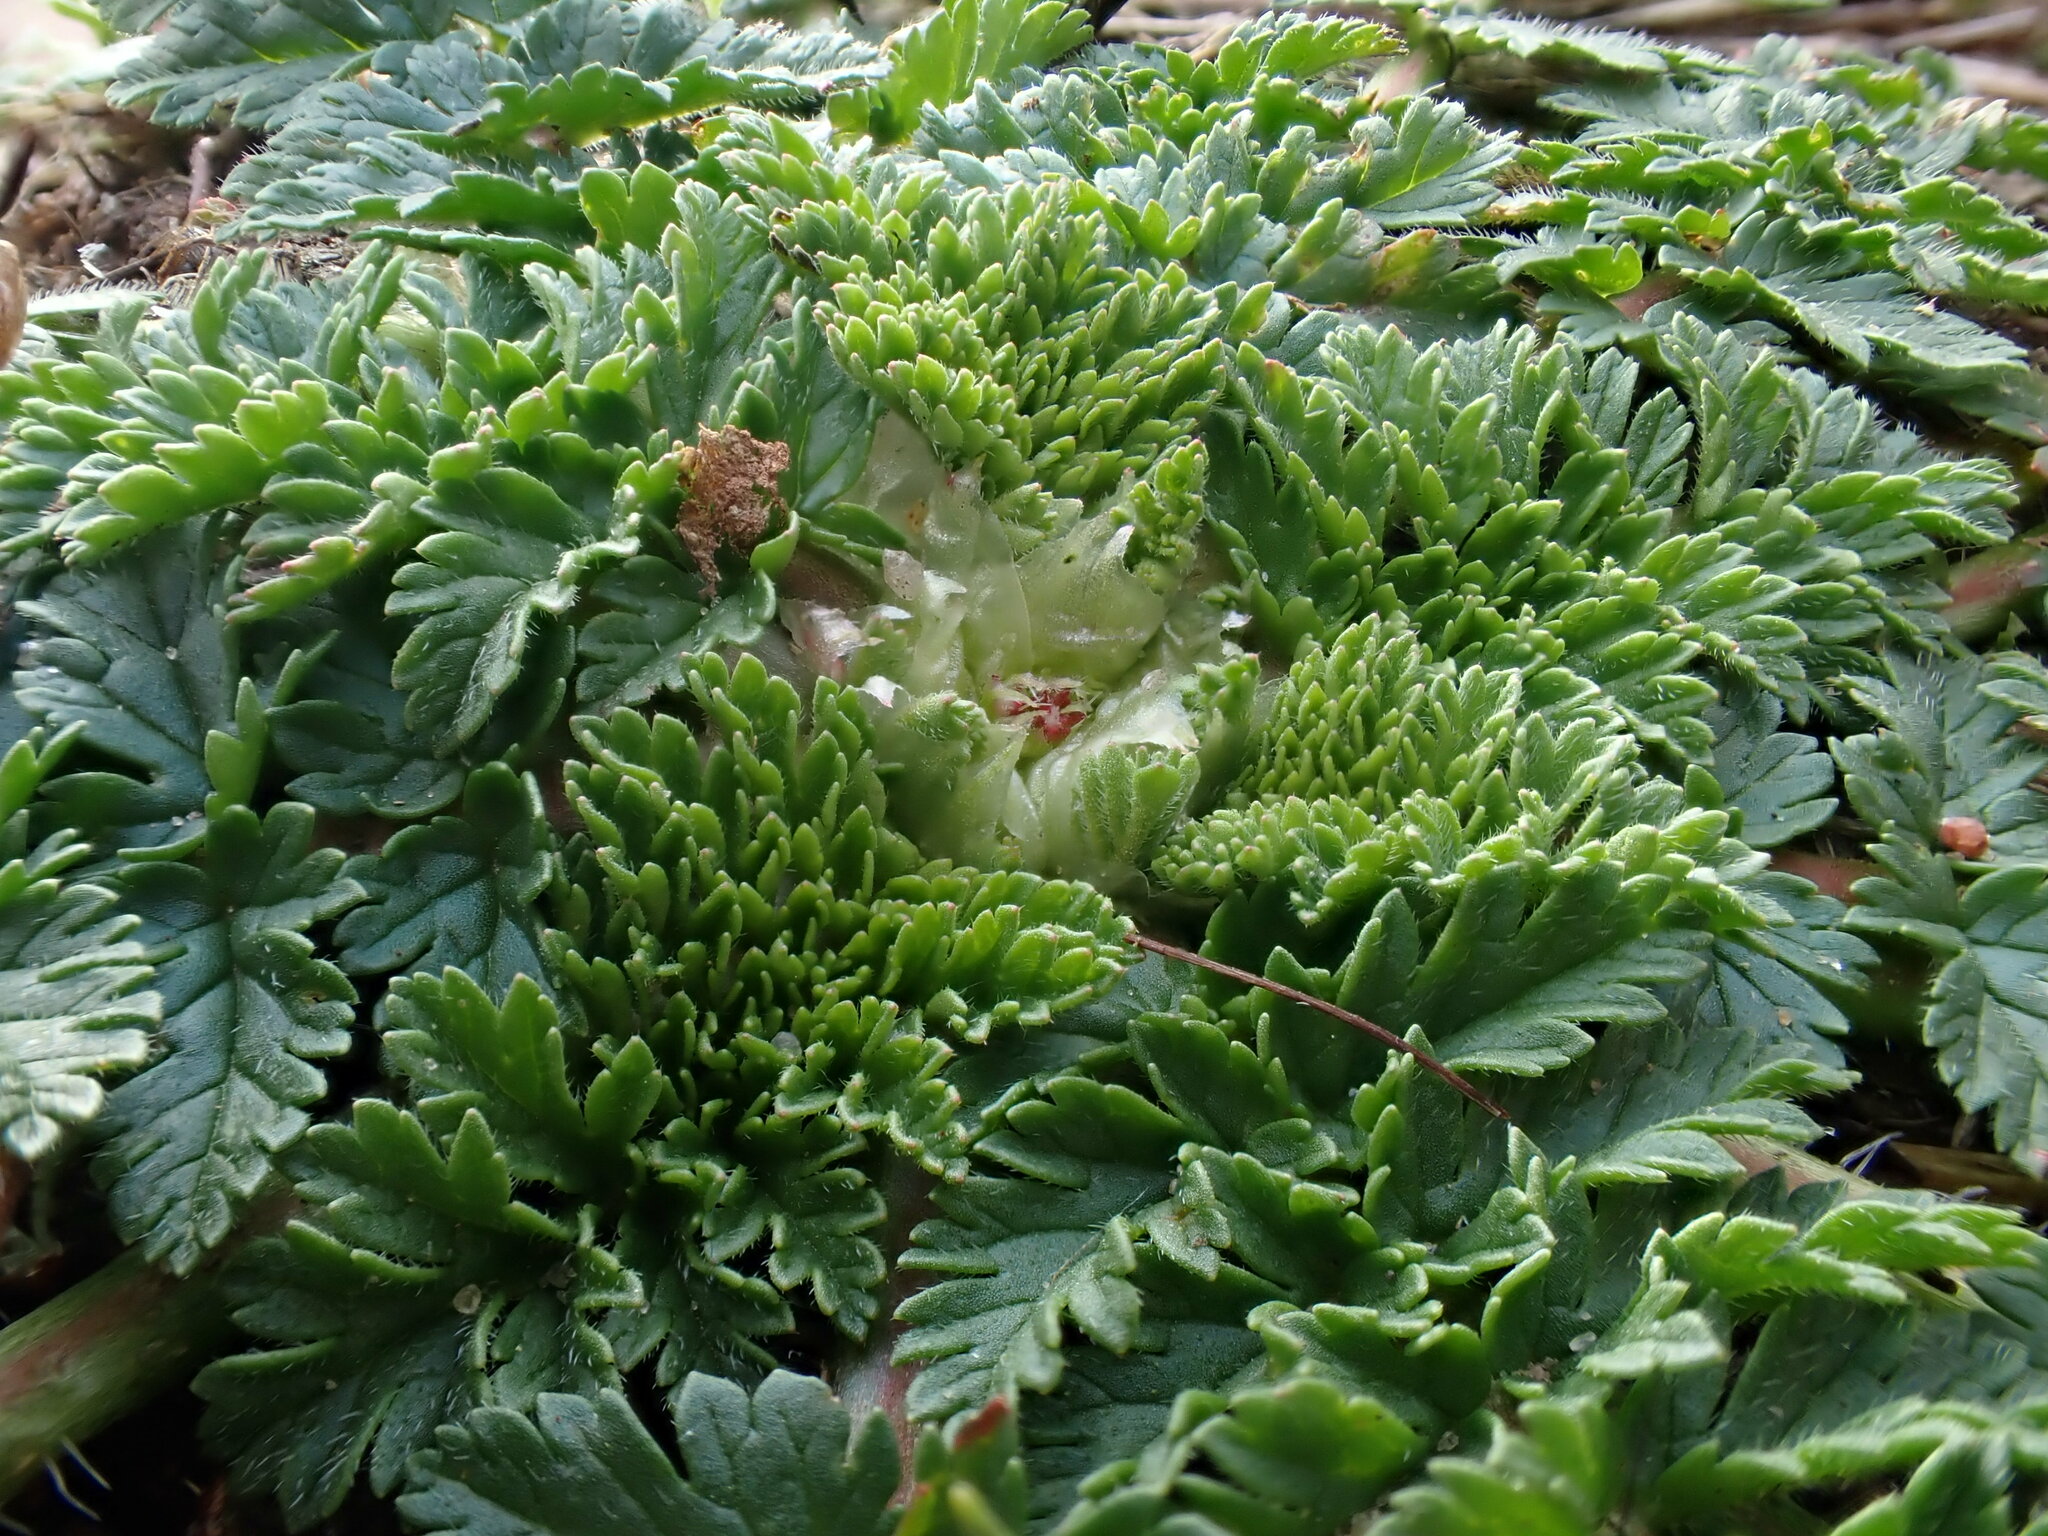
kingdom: Plantae
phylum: Tracheophyta
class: Magnoliopsida
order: Geraniales
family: Geraniaceae
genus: Erodium
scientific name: Erodium cicutarium
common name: Common stork's-bill
